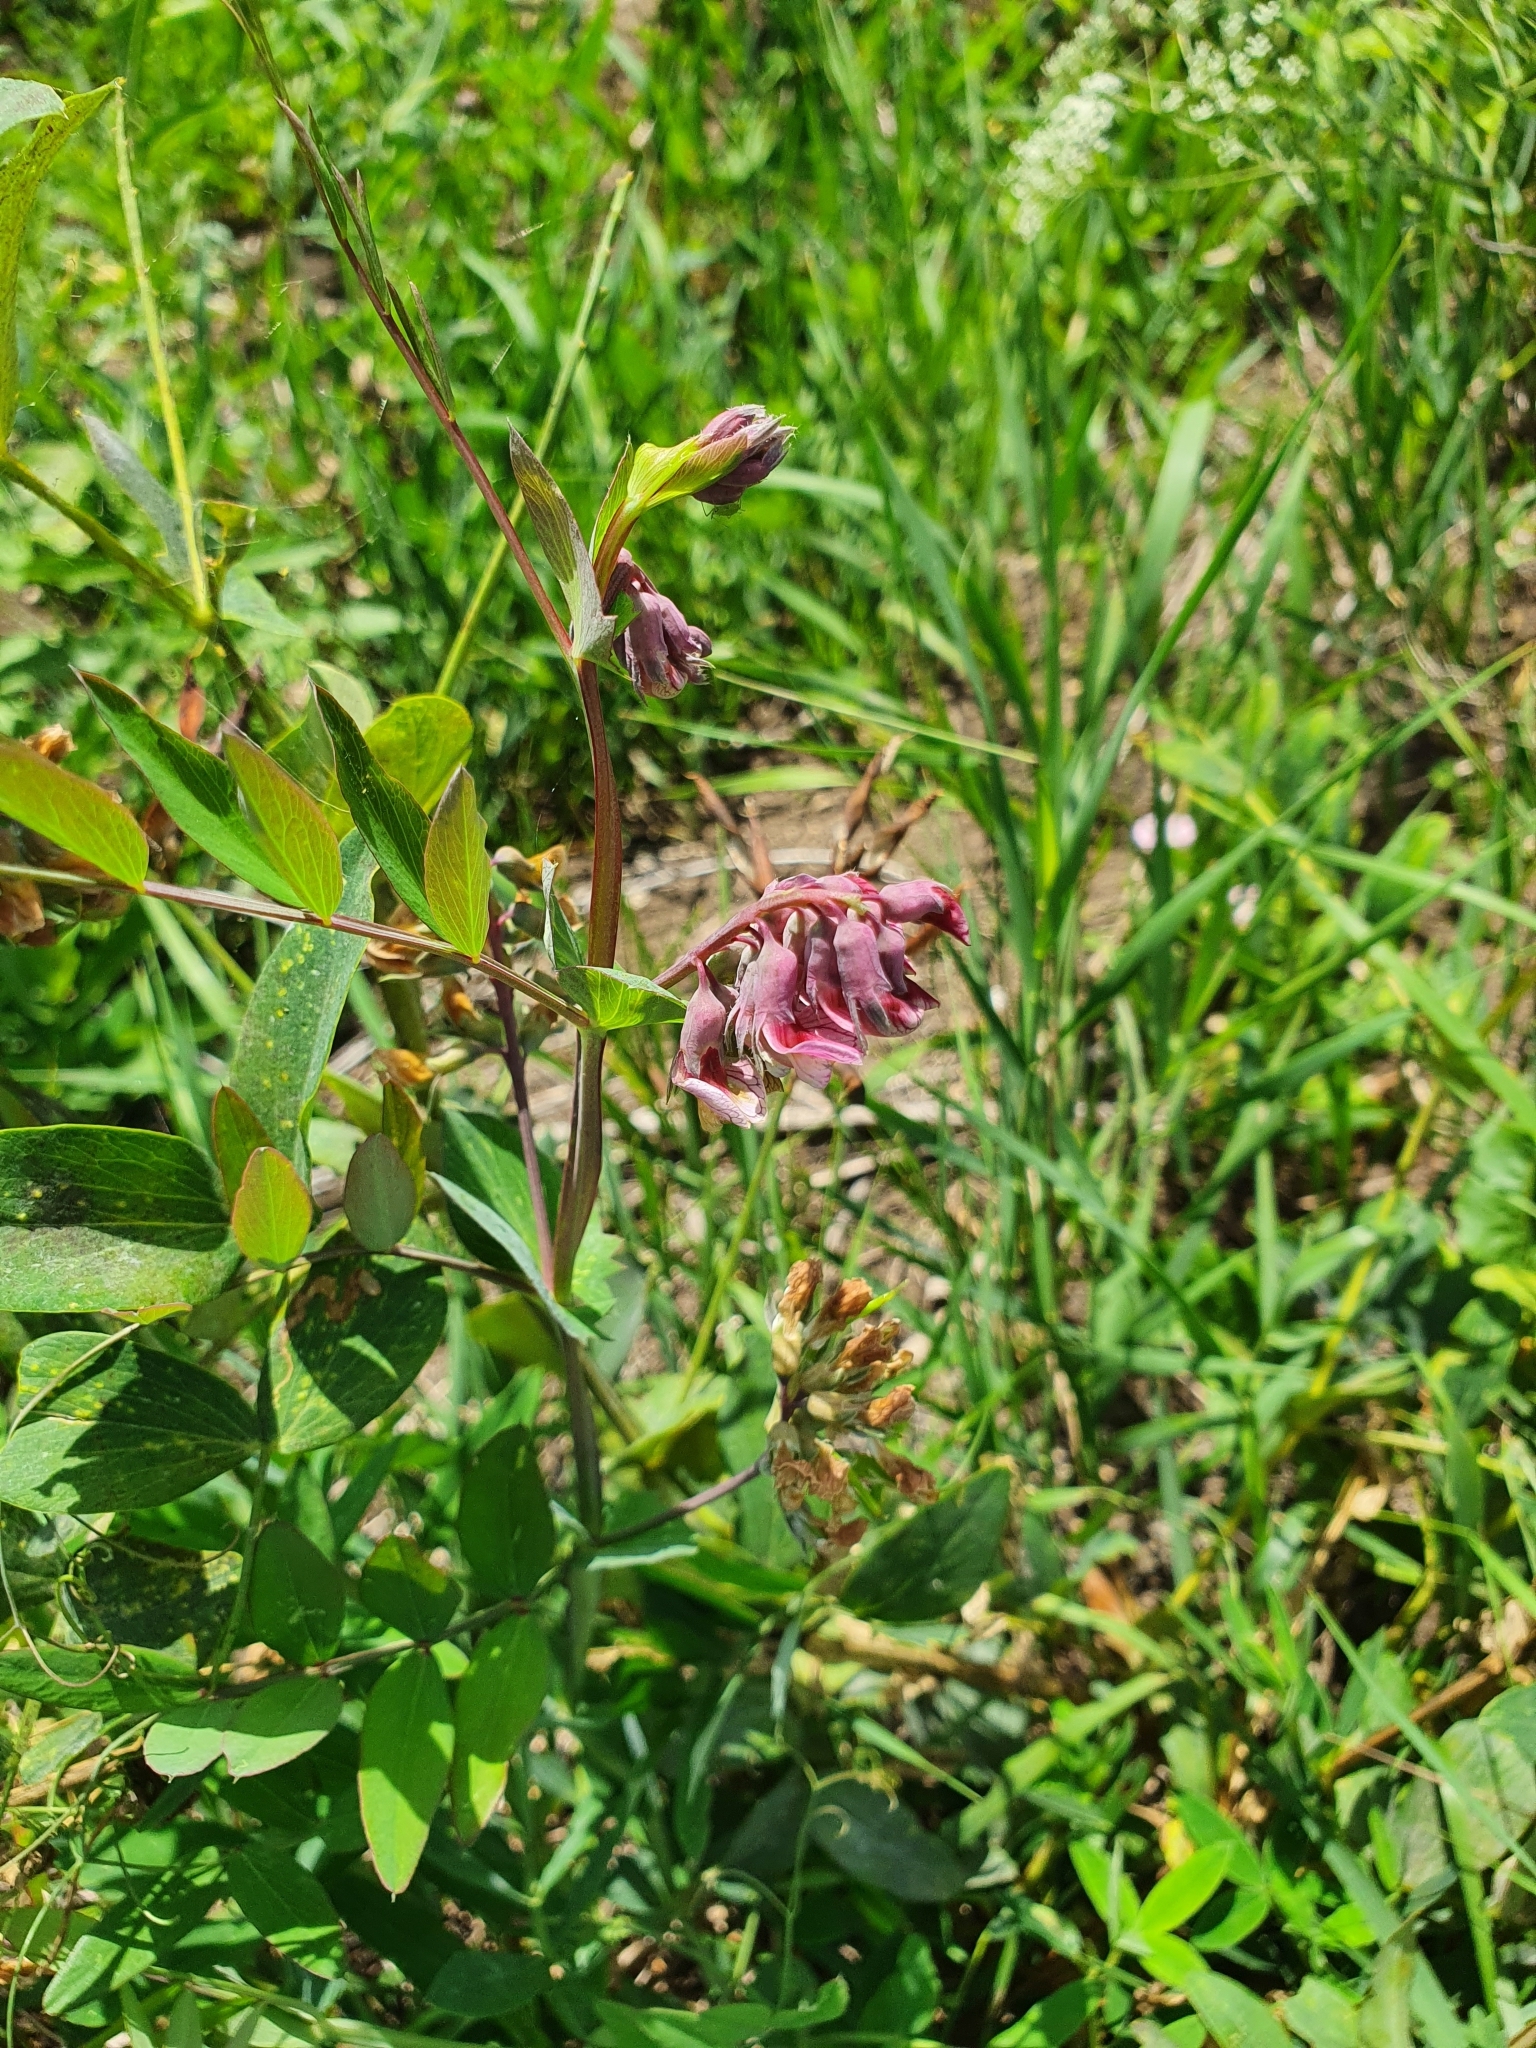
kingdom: Plantae
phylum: Tracheophyta
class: Magnoliopsida
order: Fabales
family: Fabaceae
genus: Lathyrus
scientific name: Lathyrus pisiformis
